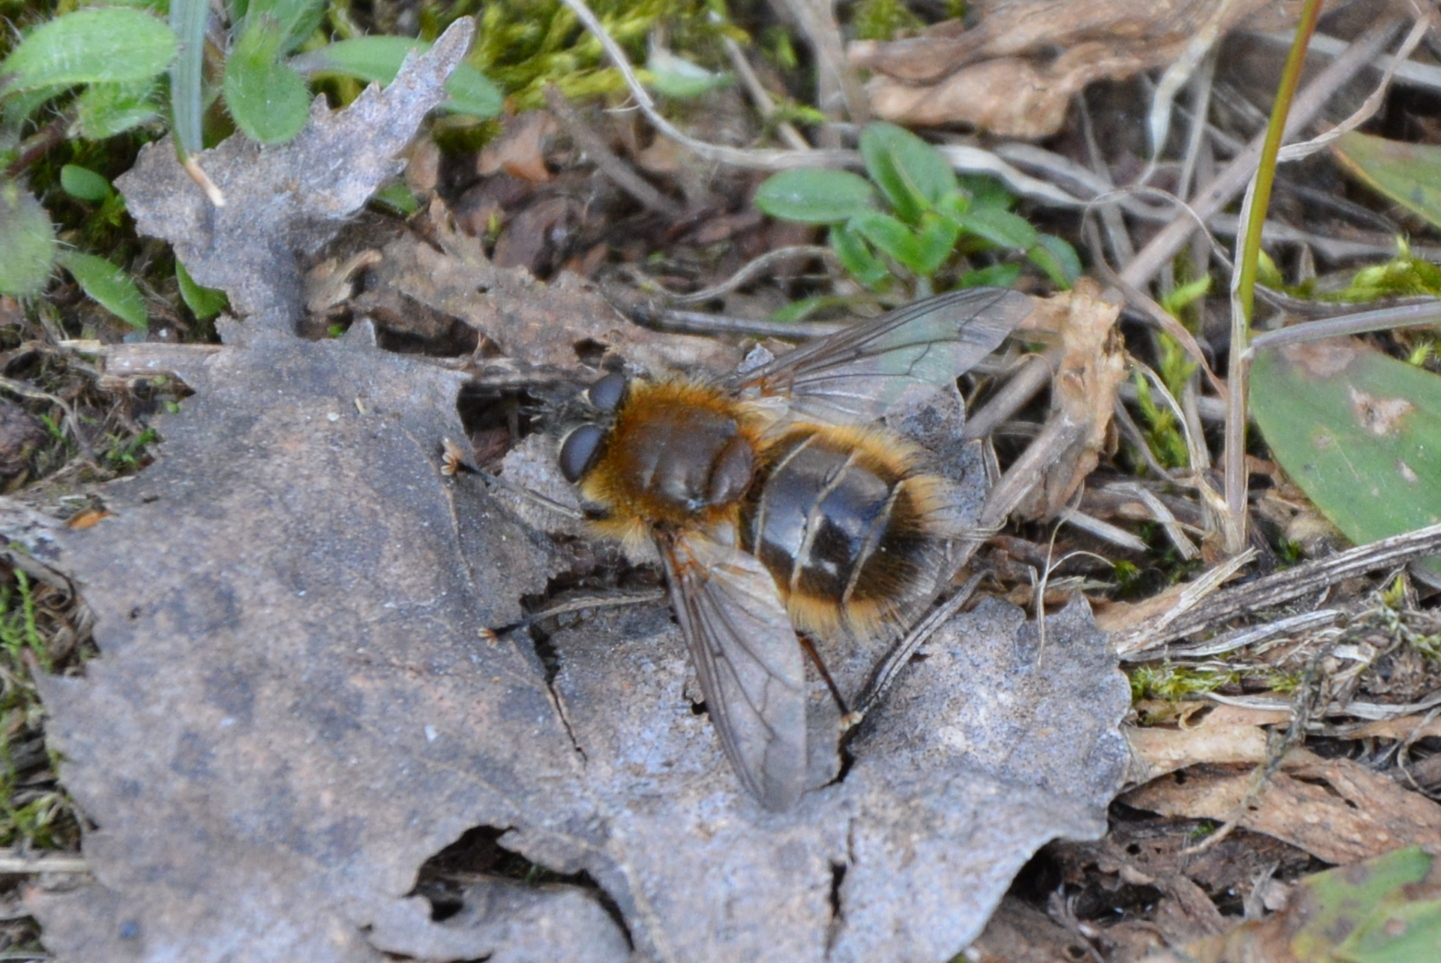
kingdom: Animalia
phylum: Arthropoda
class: Insecta
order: Diptera
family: Tachinidae
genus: Tachina
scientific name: Tachina ursina
